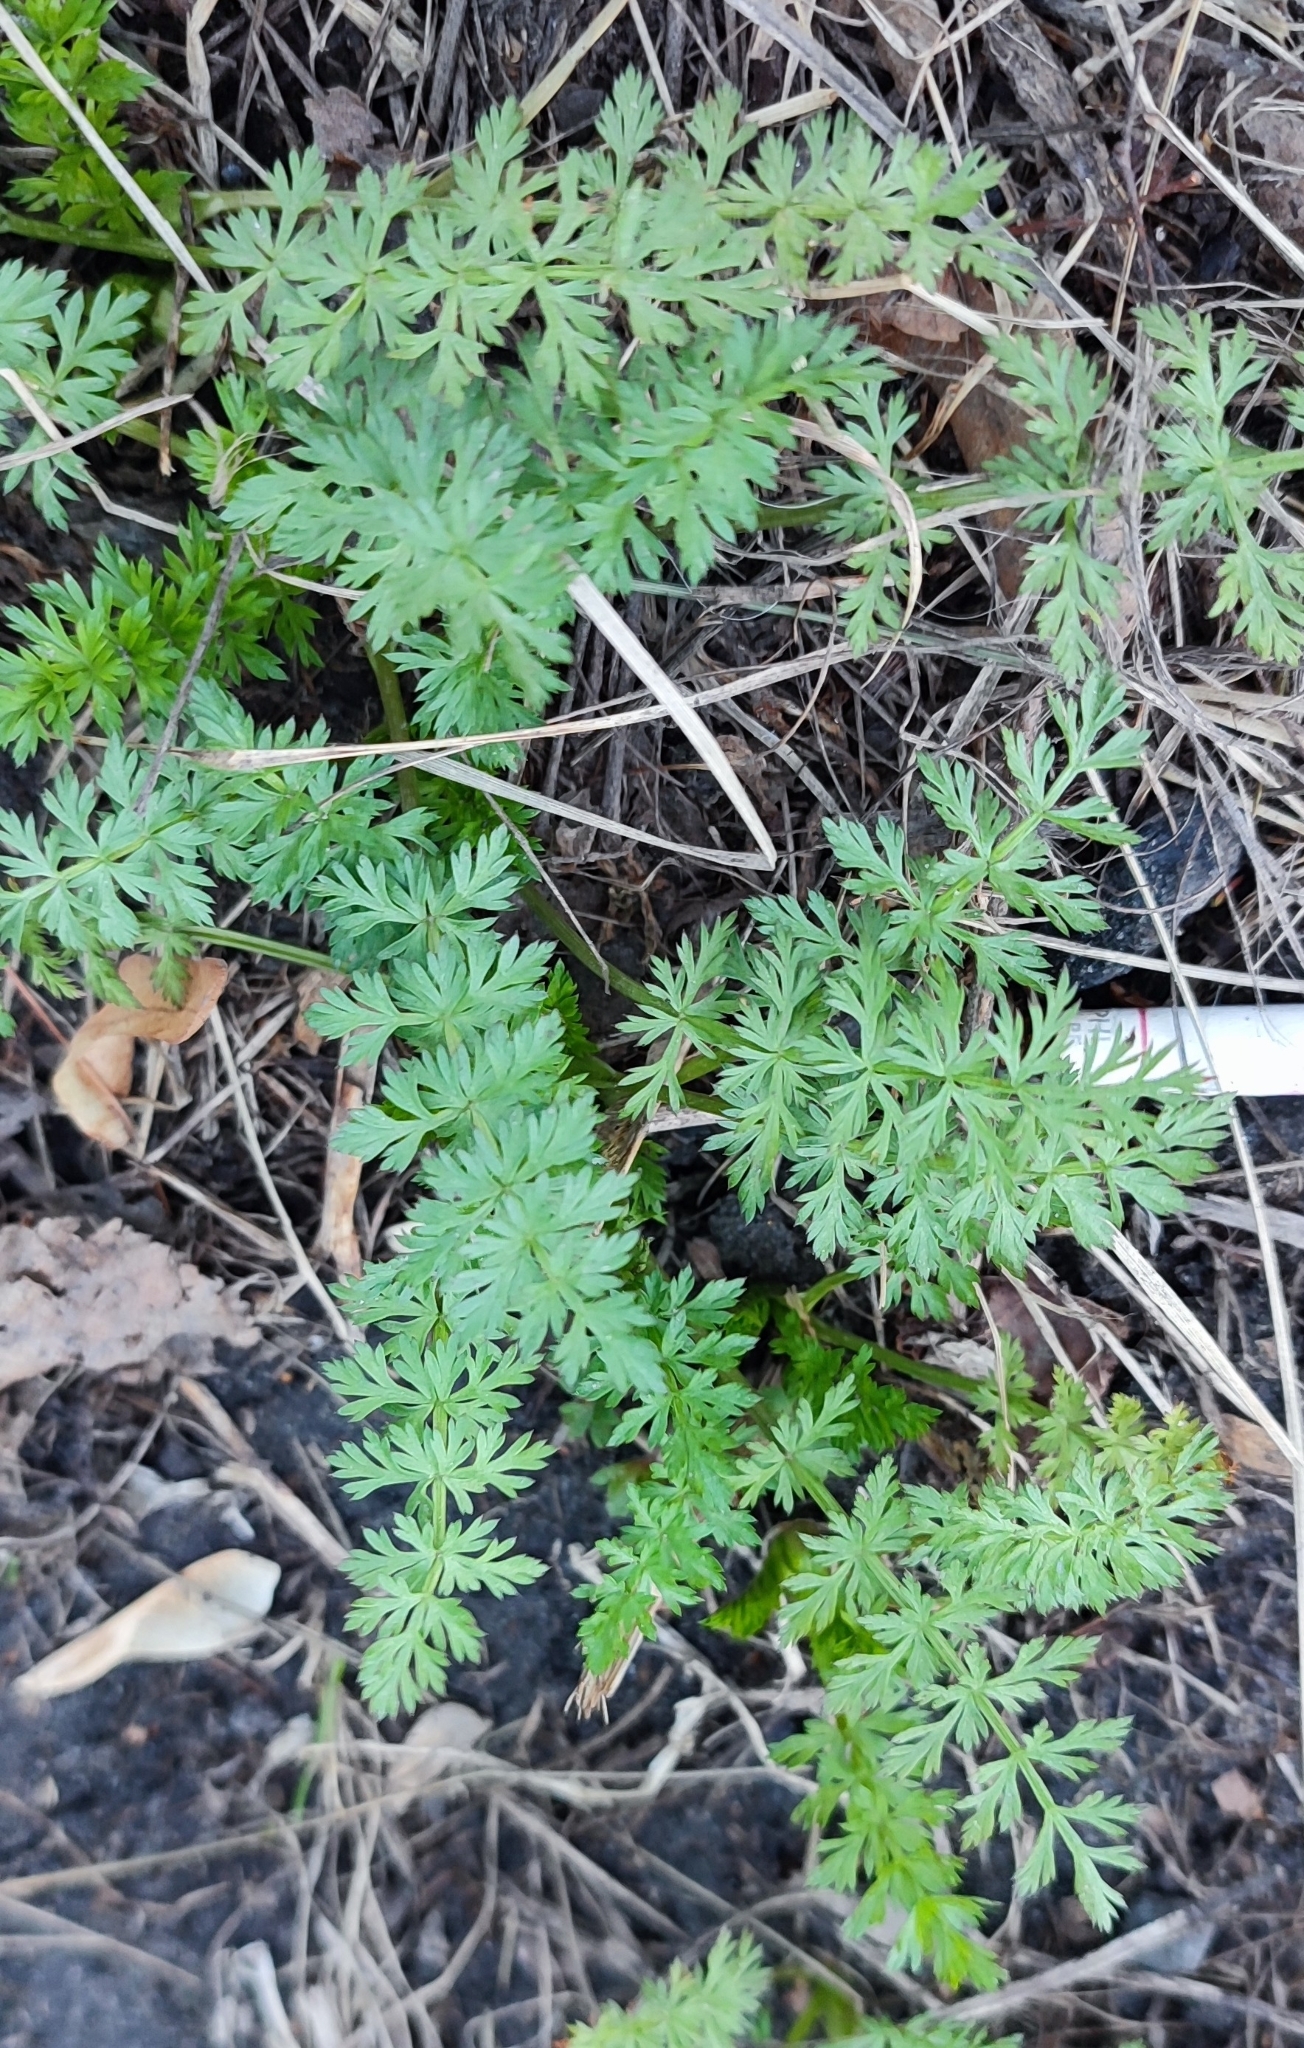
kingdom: Plantae
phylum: Tracheophyta
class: Magnoliopsida
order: Apiales
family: Apiaceae
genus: Carum
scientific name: Carum carvi
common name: Caraway
